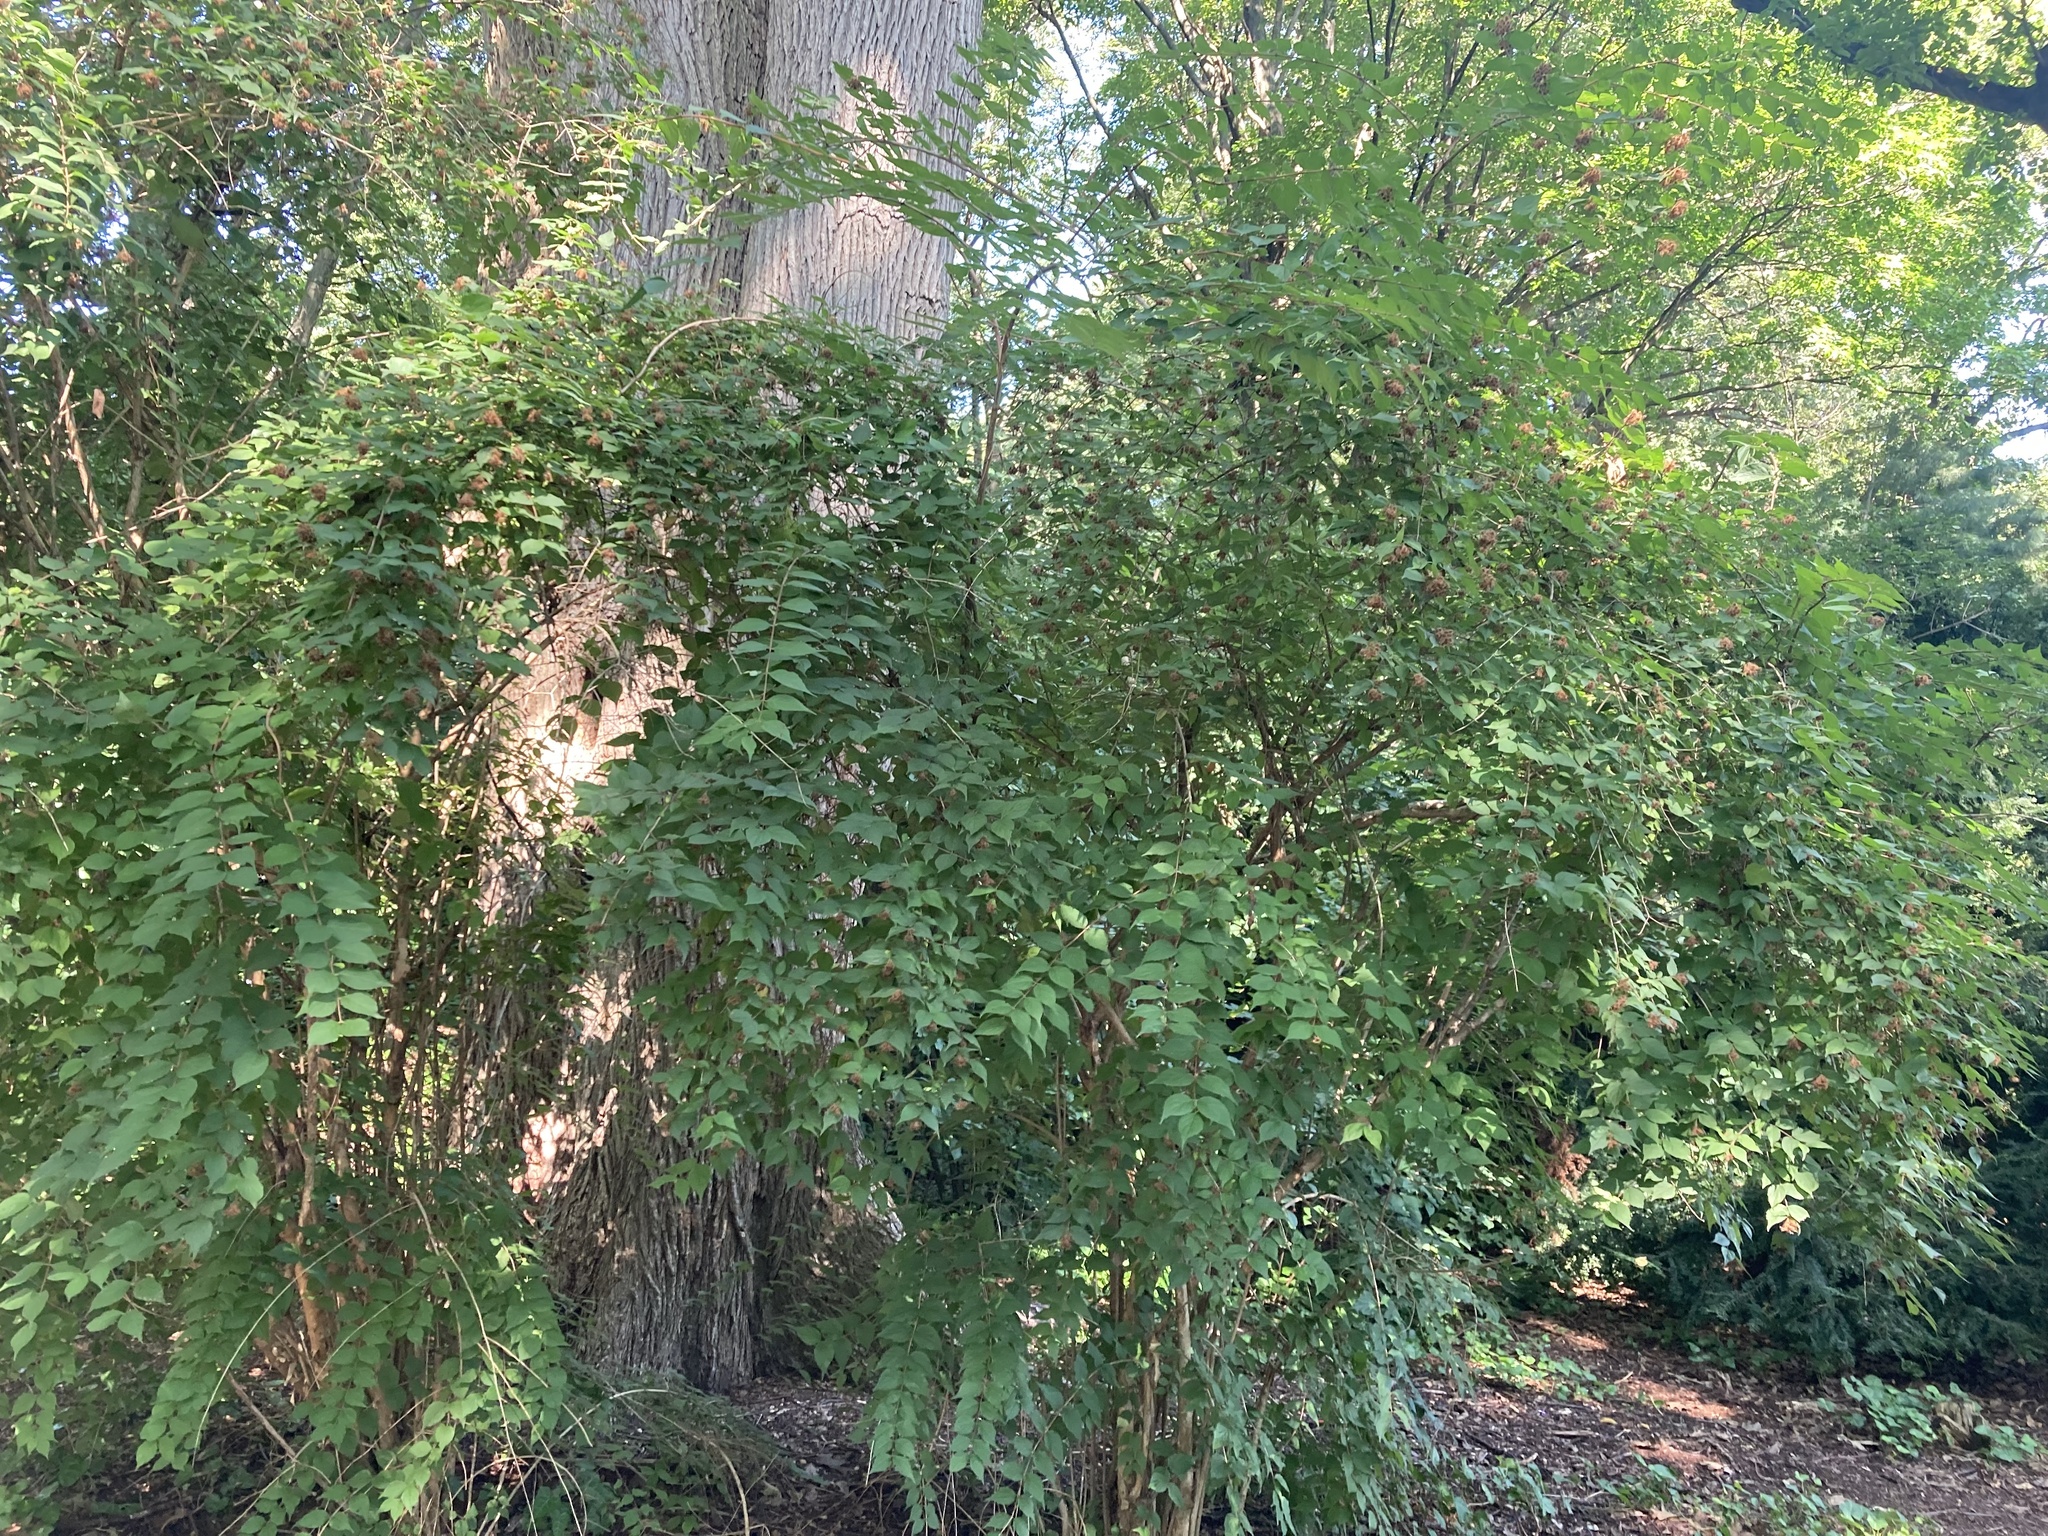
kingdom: Plantae
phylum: Tracheophyta
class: Magnoliopsida
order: Dipsacales
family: Caprifoliaceae
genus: Kolkwitzia
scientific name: Kolkwitzia amabilis
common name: Beautybush
